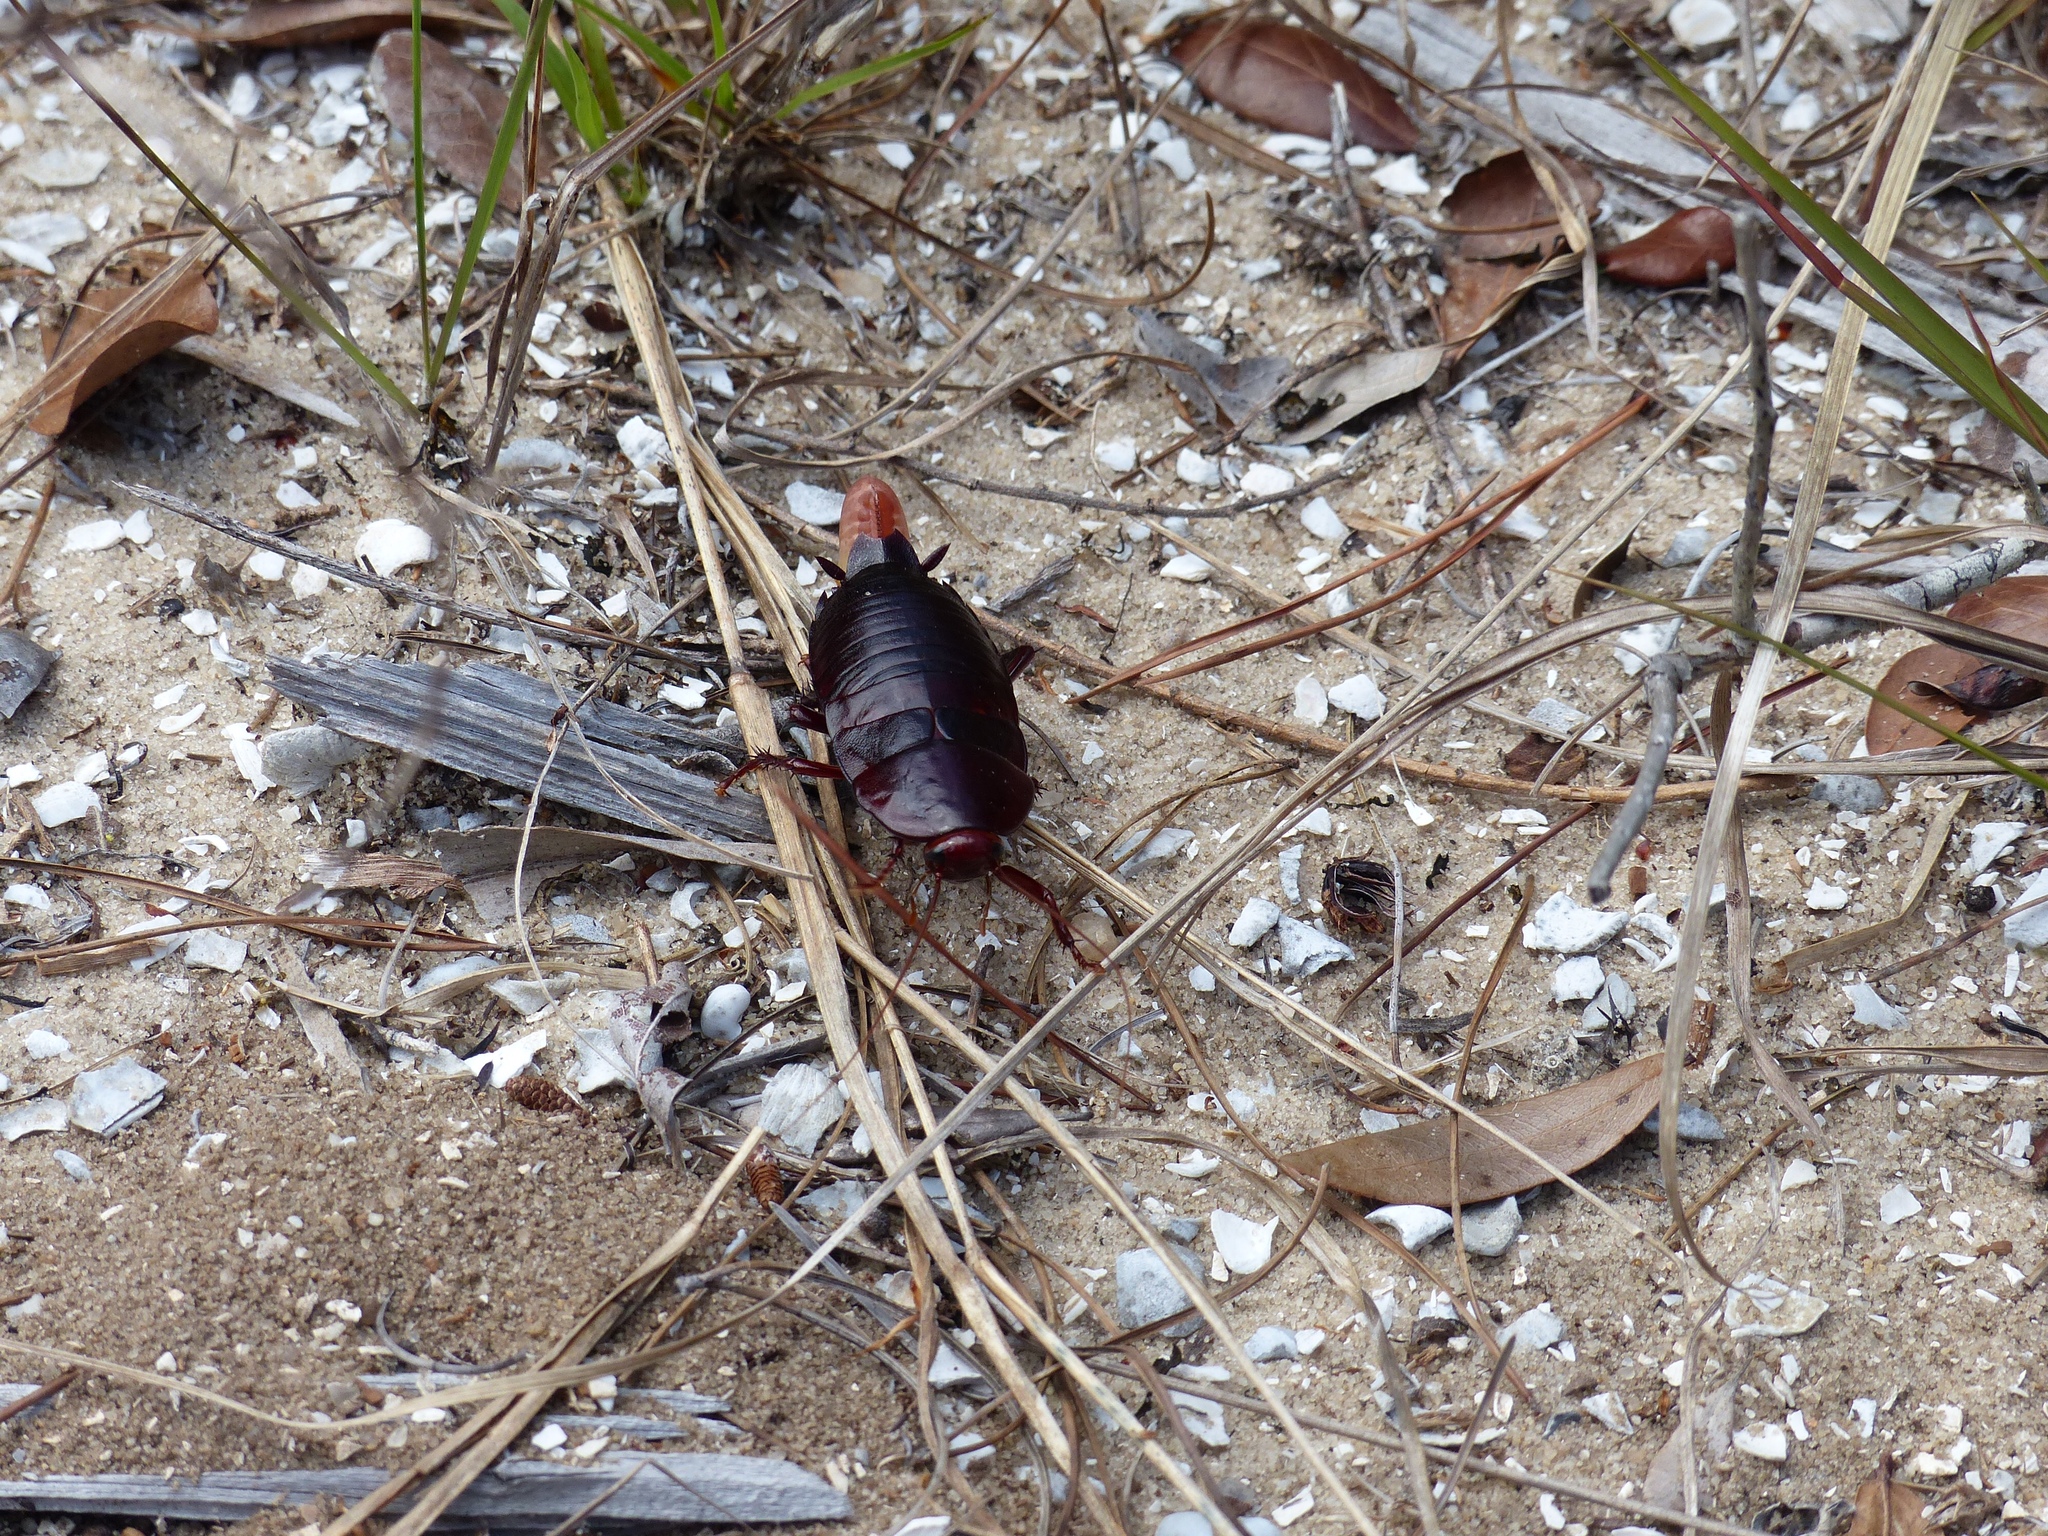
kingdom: Animalia
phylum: Arthropoda
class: Insecta
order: Blattodea
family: Blattidae
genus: Eurycotis
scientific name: Eurycotis floridana
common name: Florida cockroach
